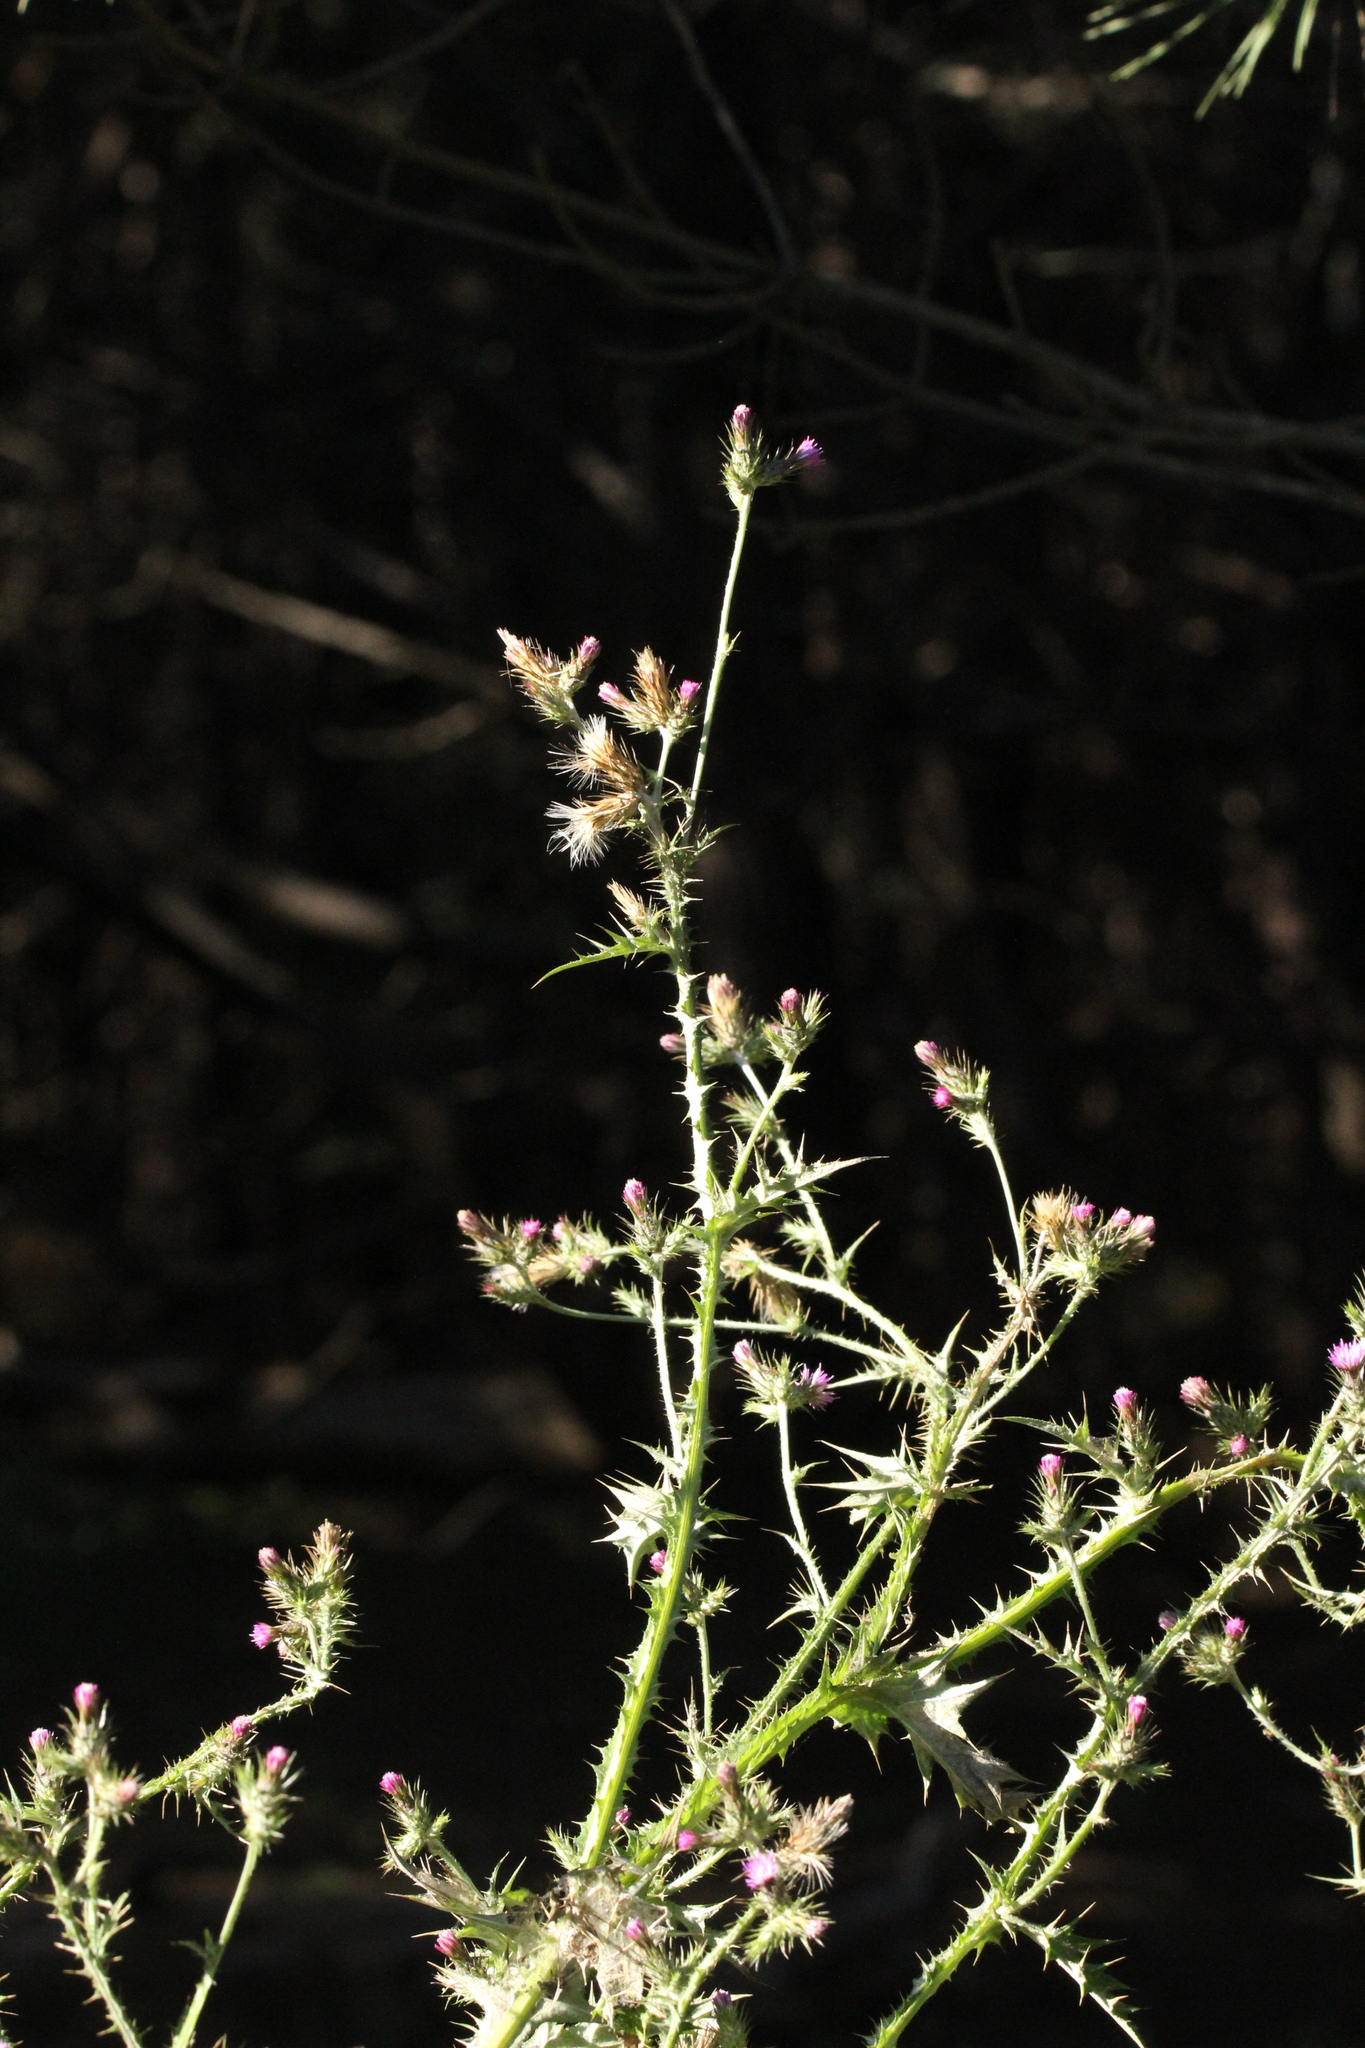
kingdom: Plantae
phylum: Tracheophyta
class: Magnoliopsida
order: Asterales
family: Asteraceae
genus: Carduus
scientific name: Carduus pycnocephalus
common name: Plymouth thistle
